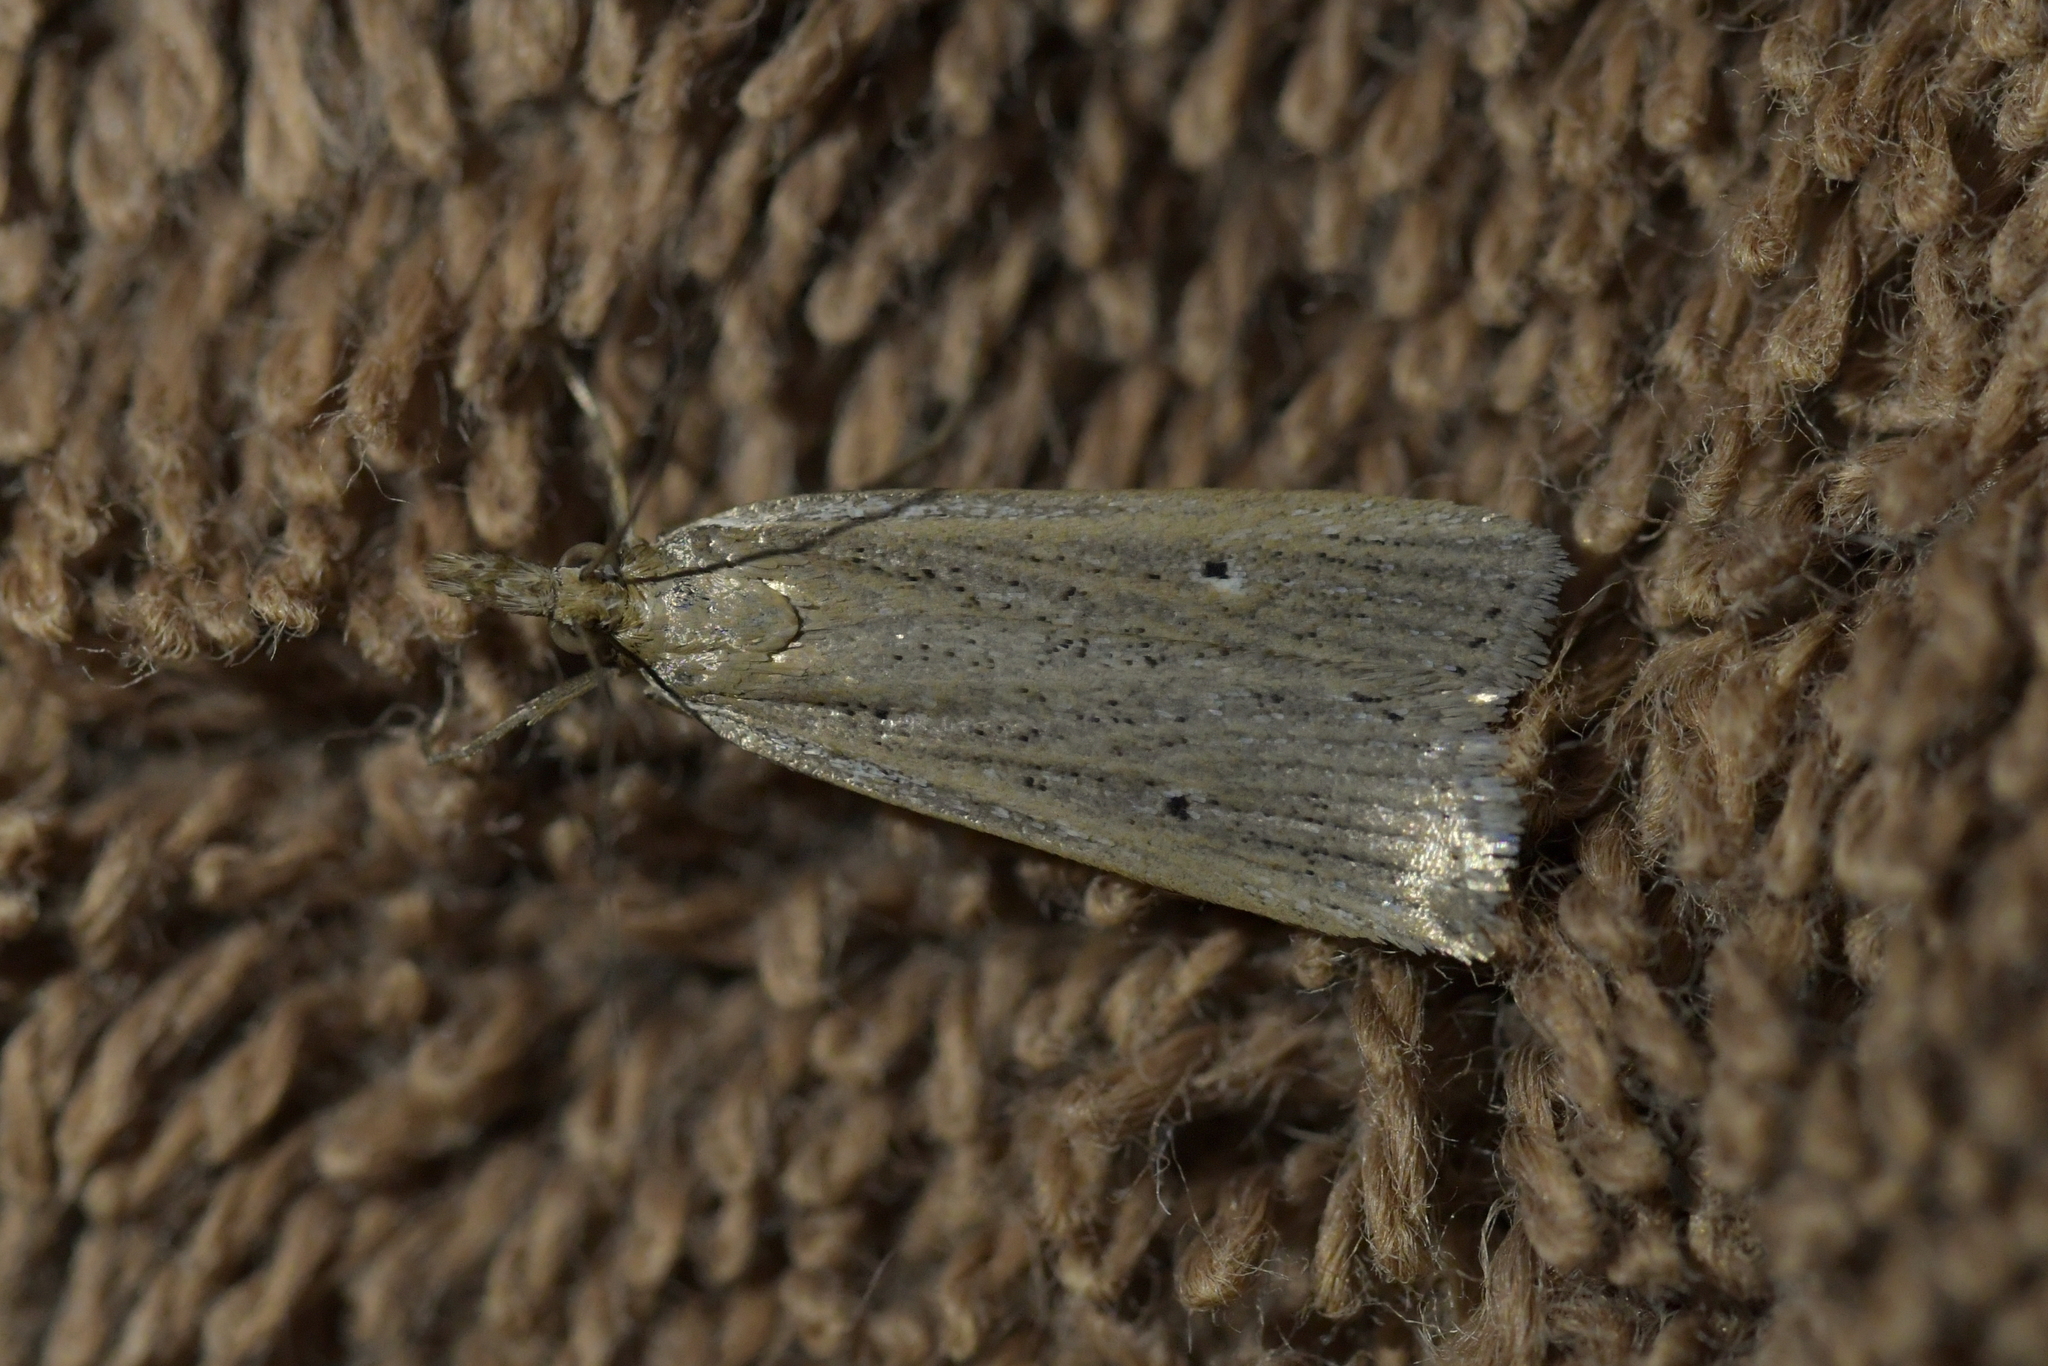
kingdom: Animalia
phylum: Arthropoda
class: Insecta
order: Lepidoptera
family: Crambidae
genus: Eudonia
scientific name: Eudonia sabulosella
